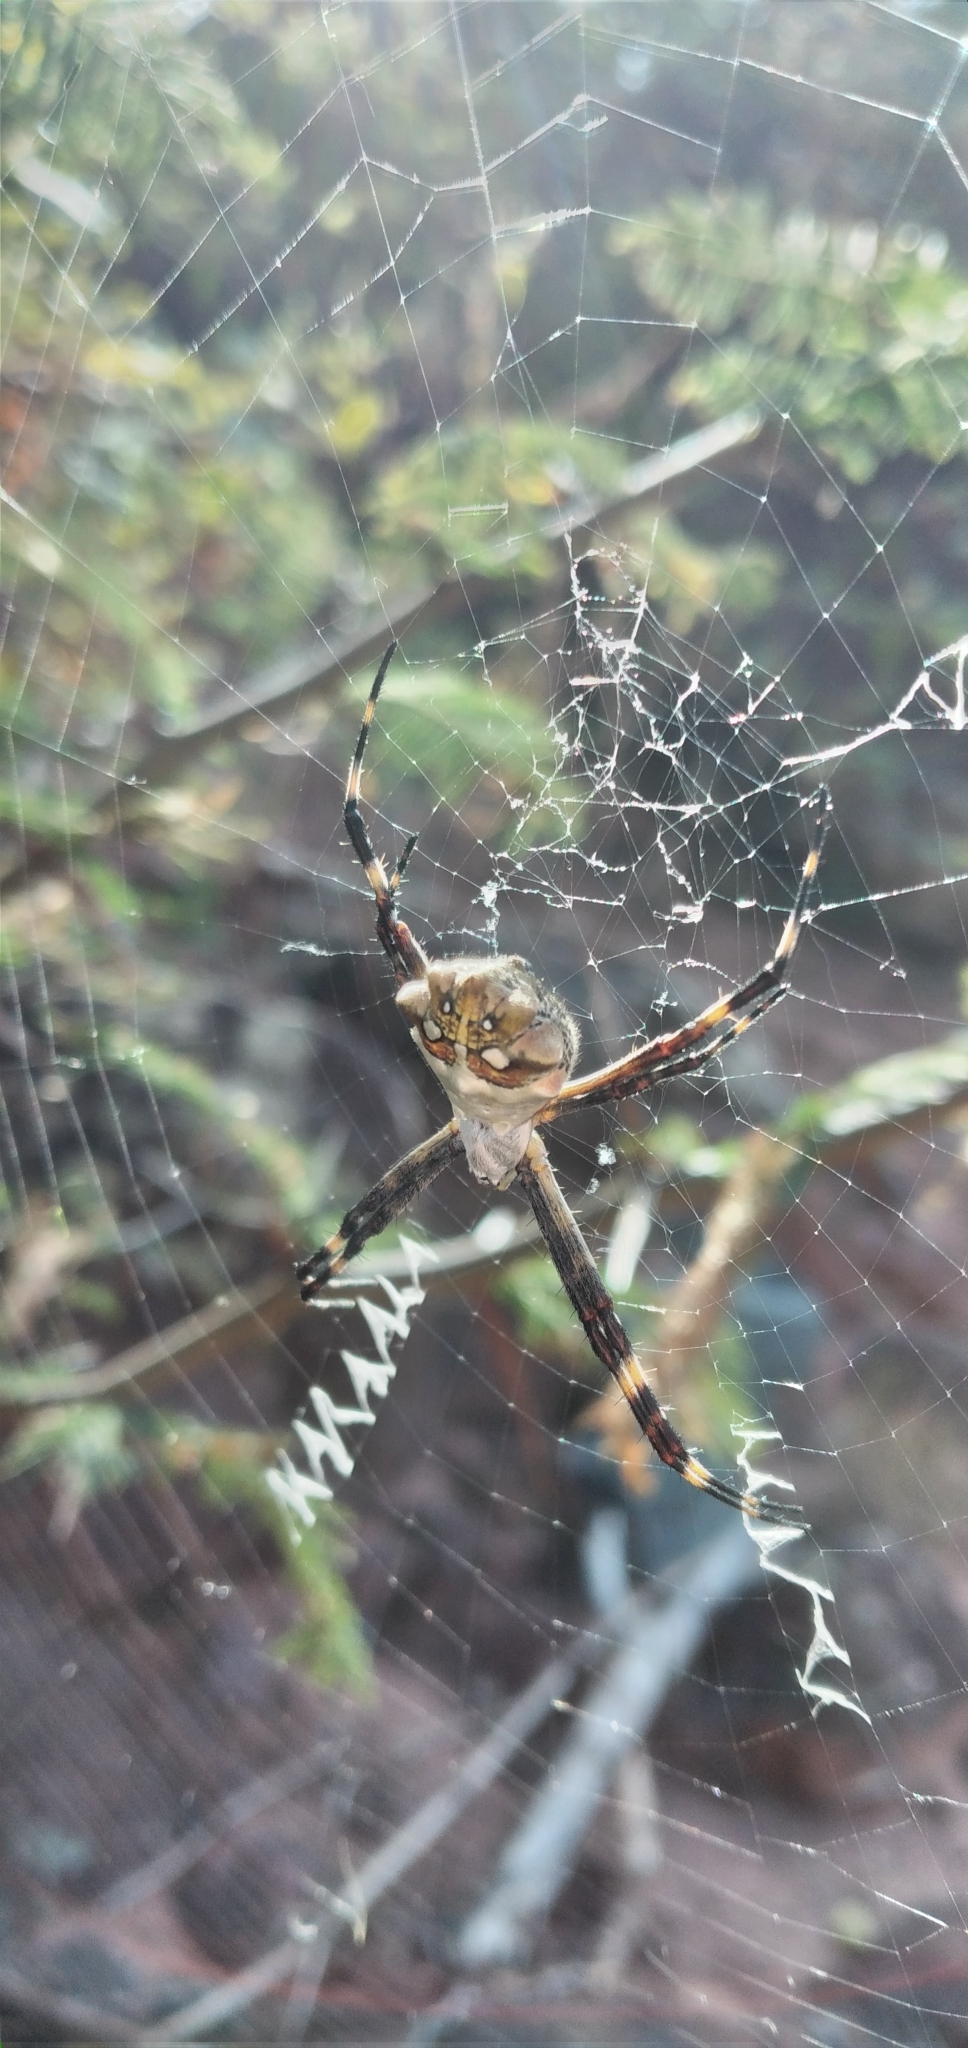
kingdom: Animalia
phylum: Arthropoda
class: Arachnida
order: Araneae
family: Araneidae
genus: Argiope
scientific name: Argiope argentata
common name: Orb weavers
